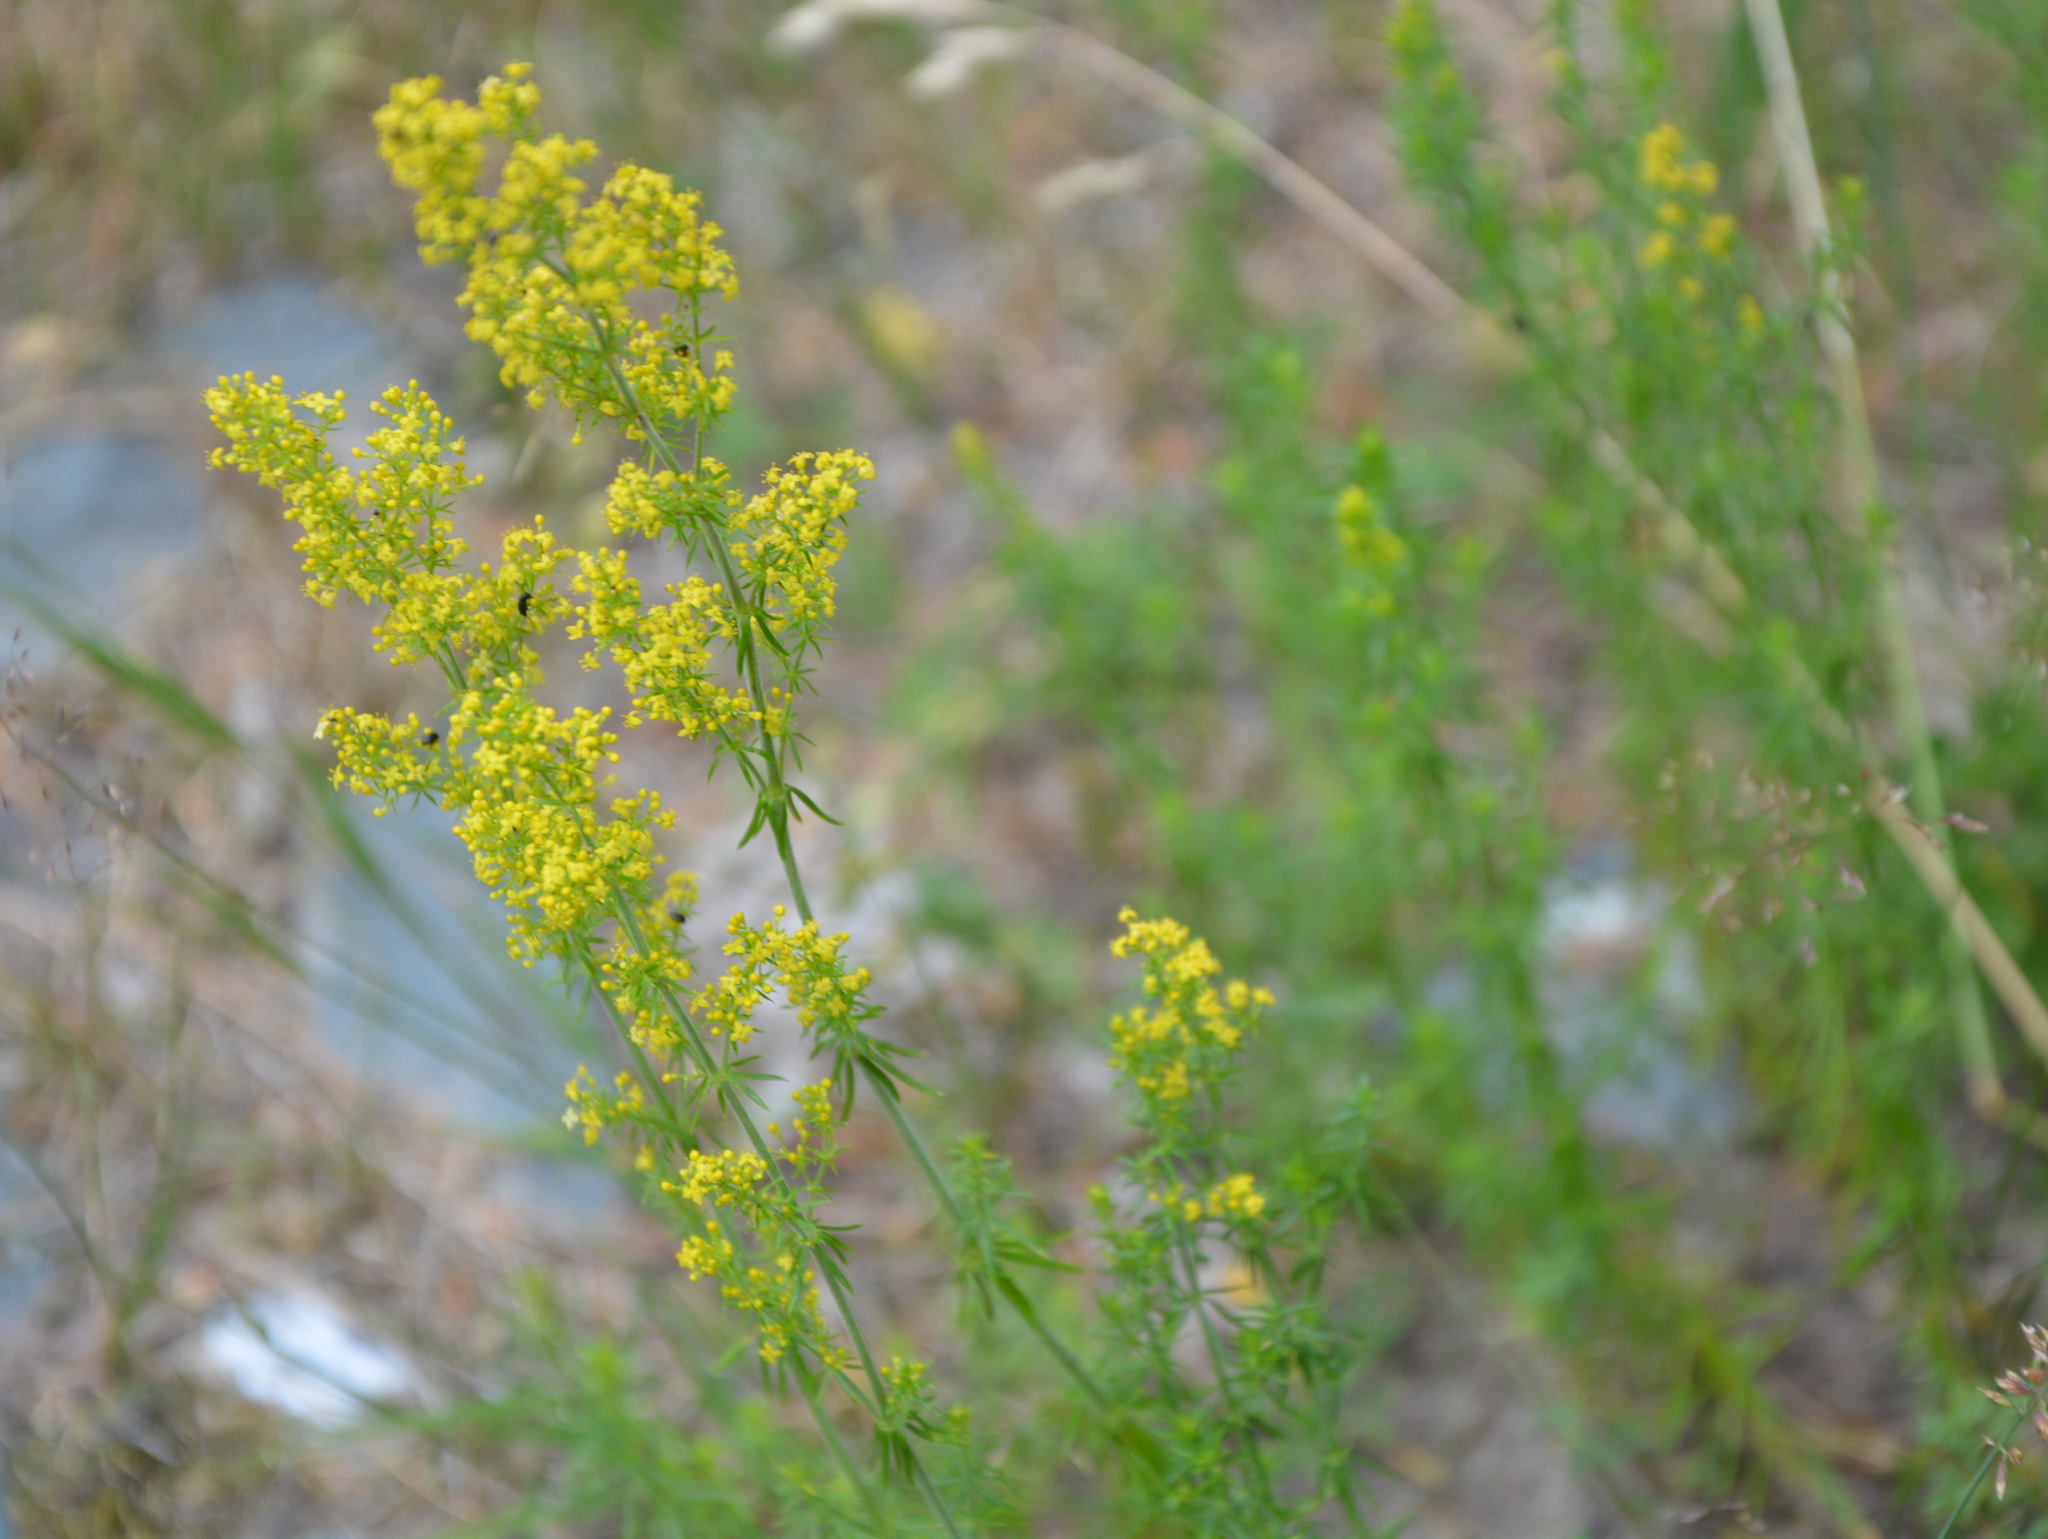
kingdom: Plantae
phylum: Tracheophyta
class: Magnoliopsida
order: Gentianales
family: Rubiaceae
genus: Galium
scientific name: Galium verum
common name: Lady's bedstraw
